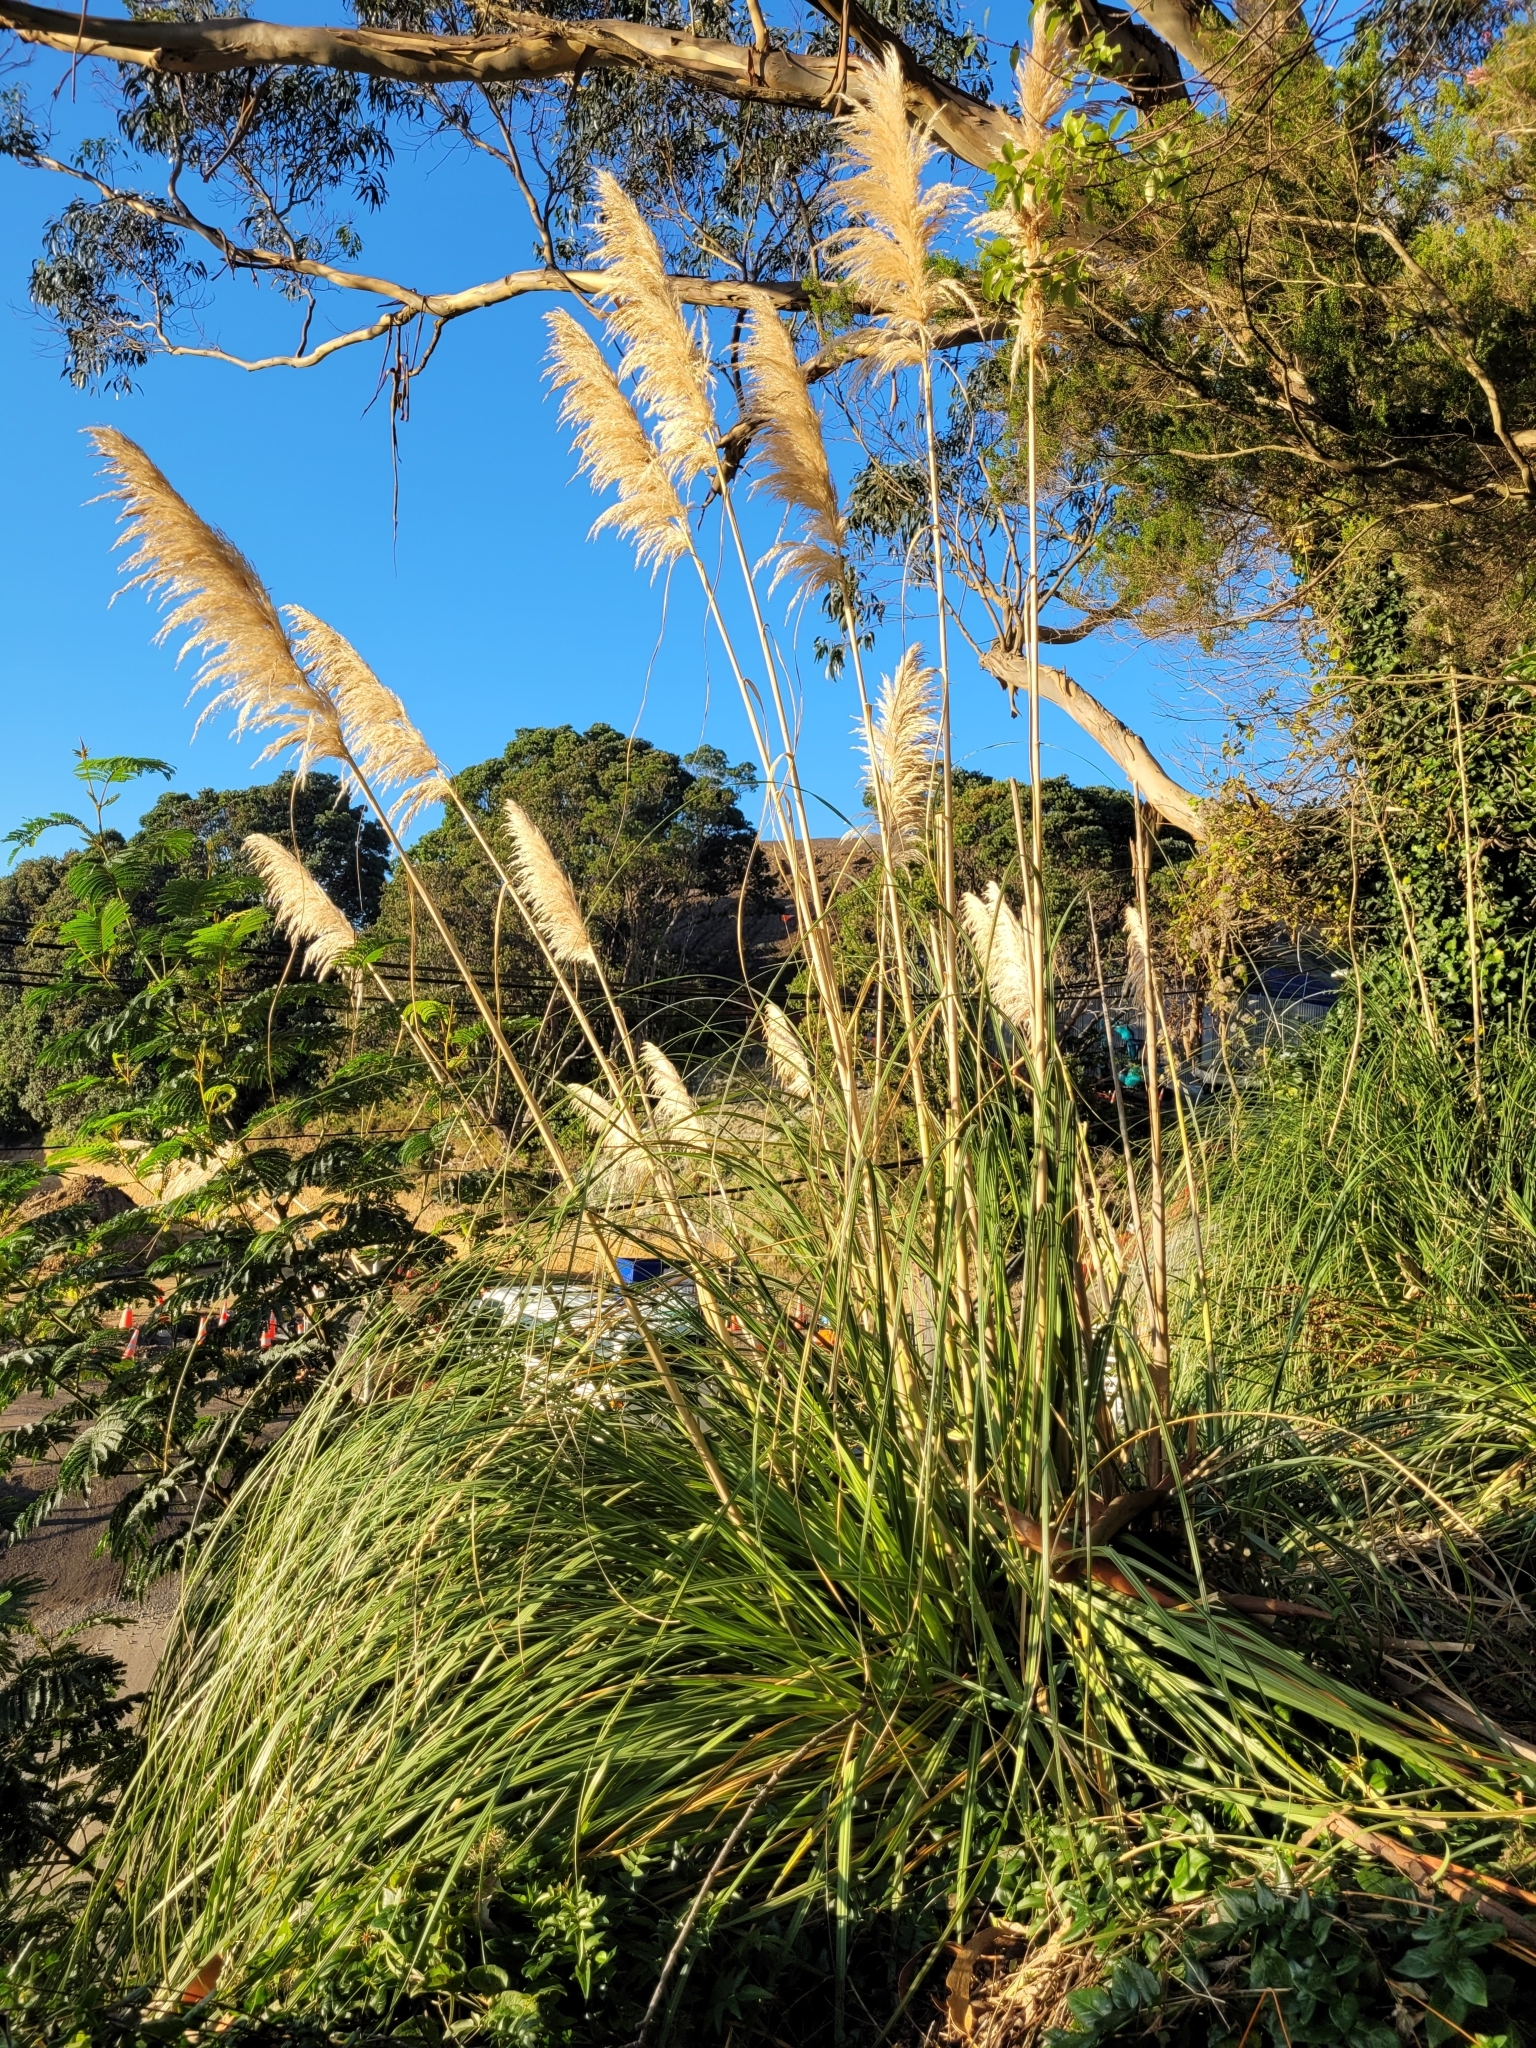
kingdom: Plantae
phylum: Tracheophyta
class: Liliopsida
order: Poales
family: Poaceae
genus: Cortaderia
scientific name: Cortaderia selloana
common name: Uruguayan pampas grass
